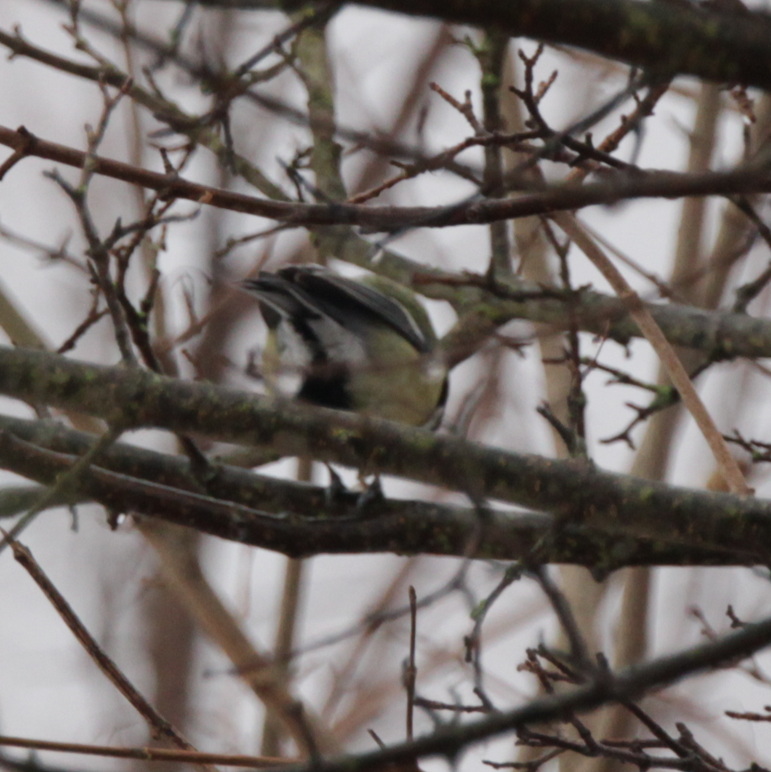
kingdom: Animalia
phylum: Chordata
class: Aves
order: Passeriformes
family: Paridae
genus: Parus
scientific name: Parus major
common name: Great tit
